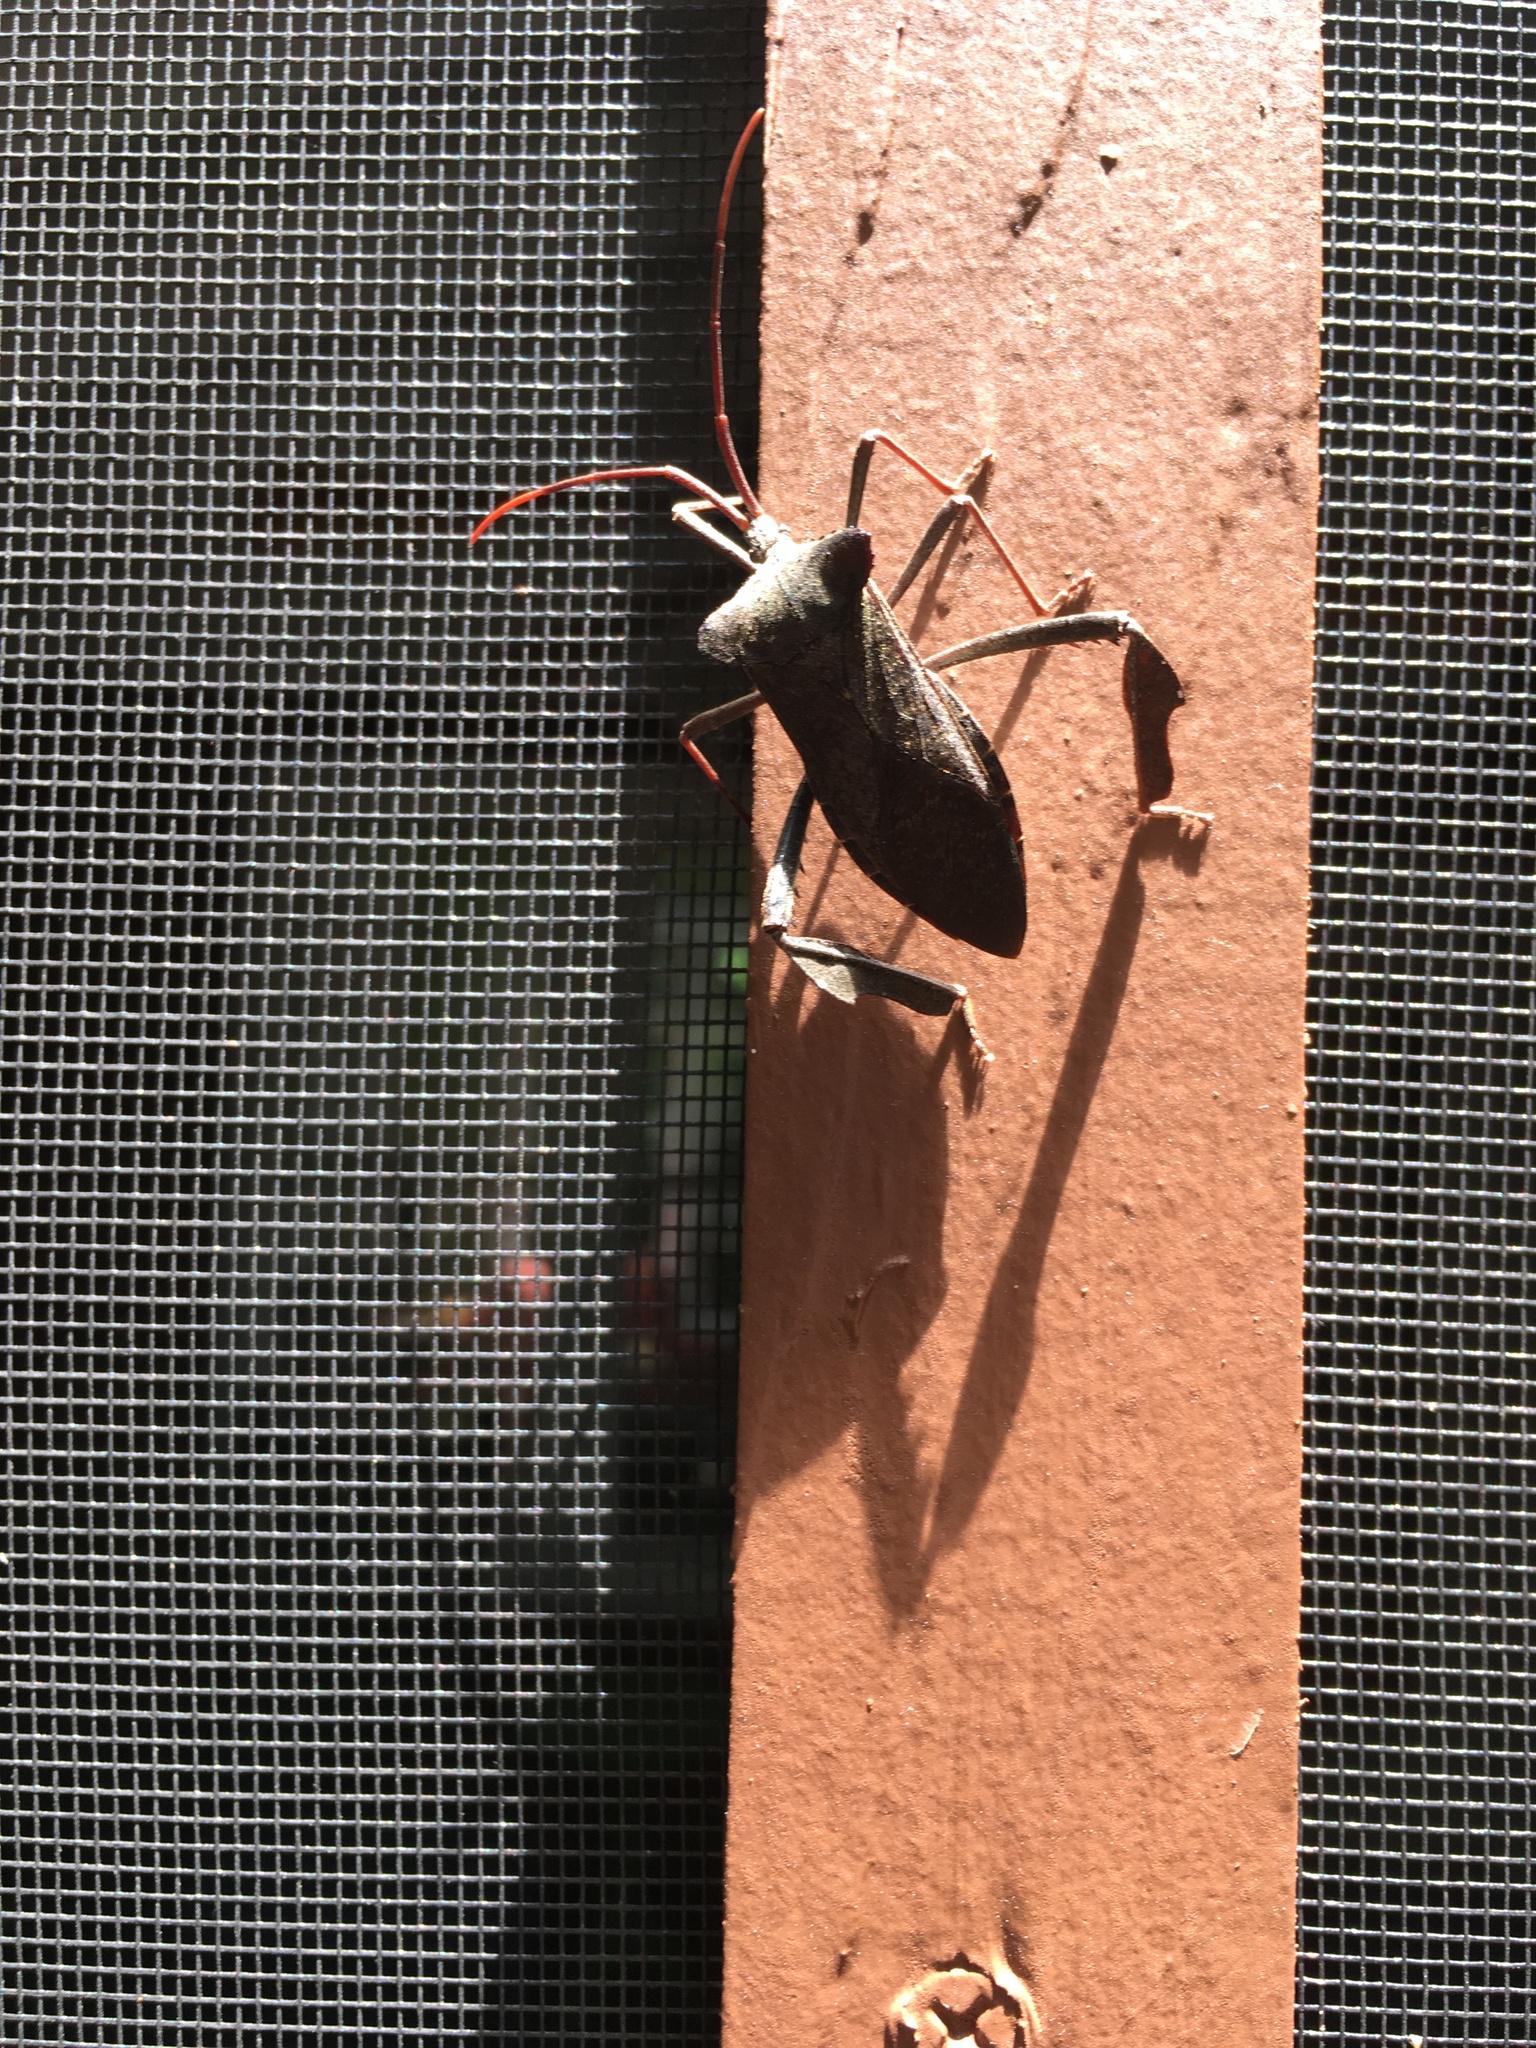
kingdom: Animalia
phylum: Arthropoda
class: Insecta
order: Hemiptera
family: Coreidae
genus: Acanthocephala
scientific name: Acanthocephala declivis
